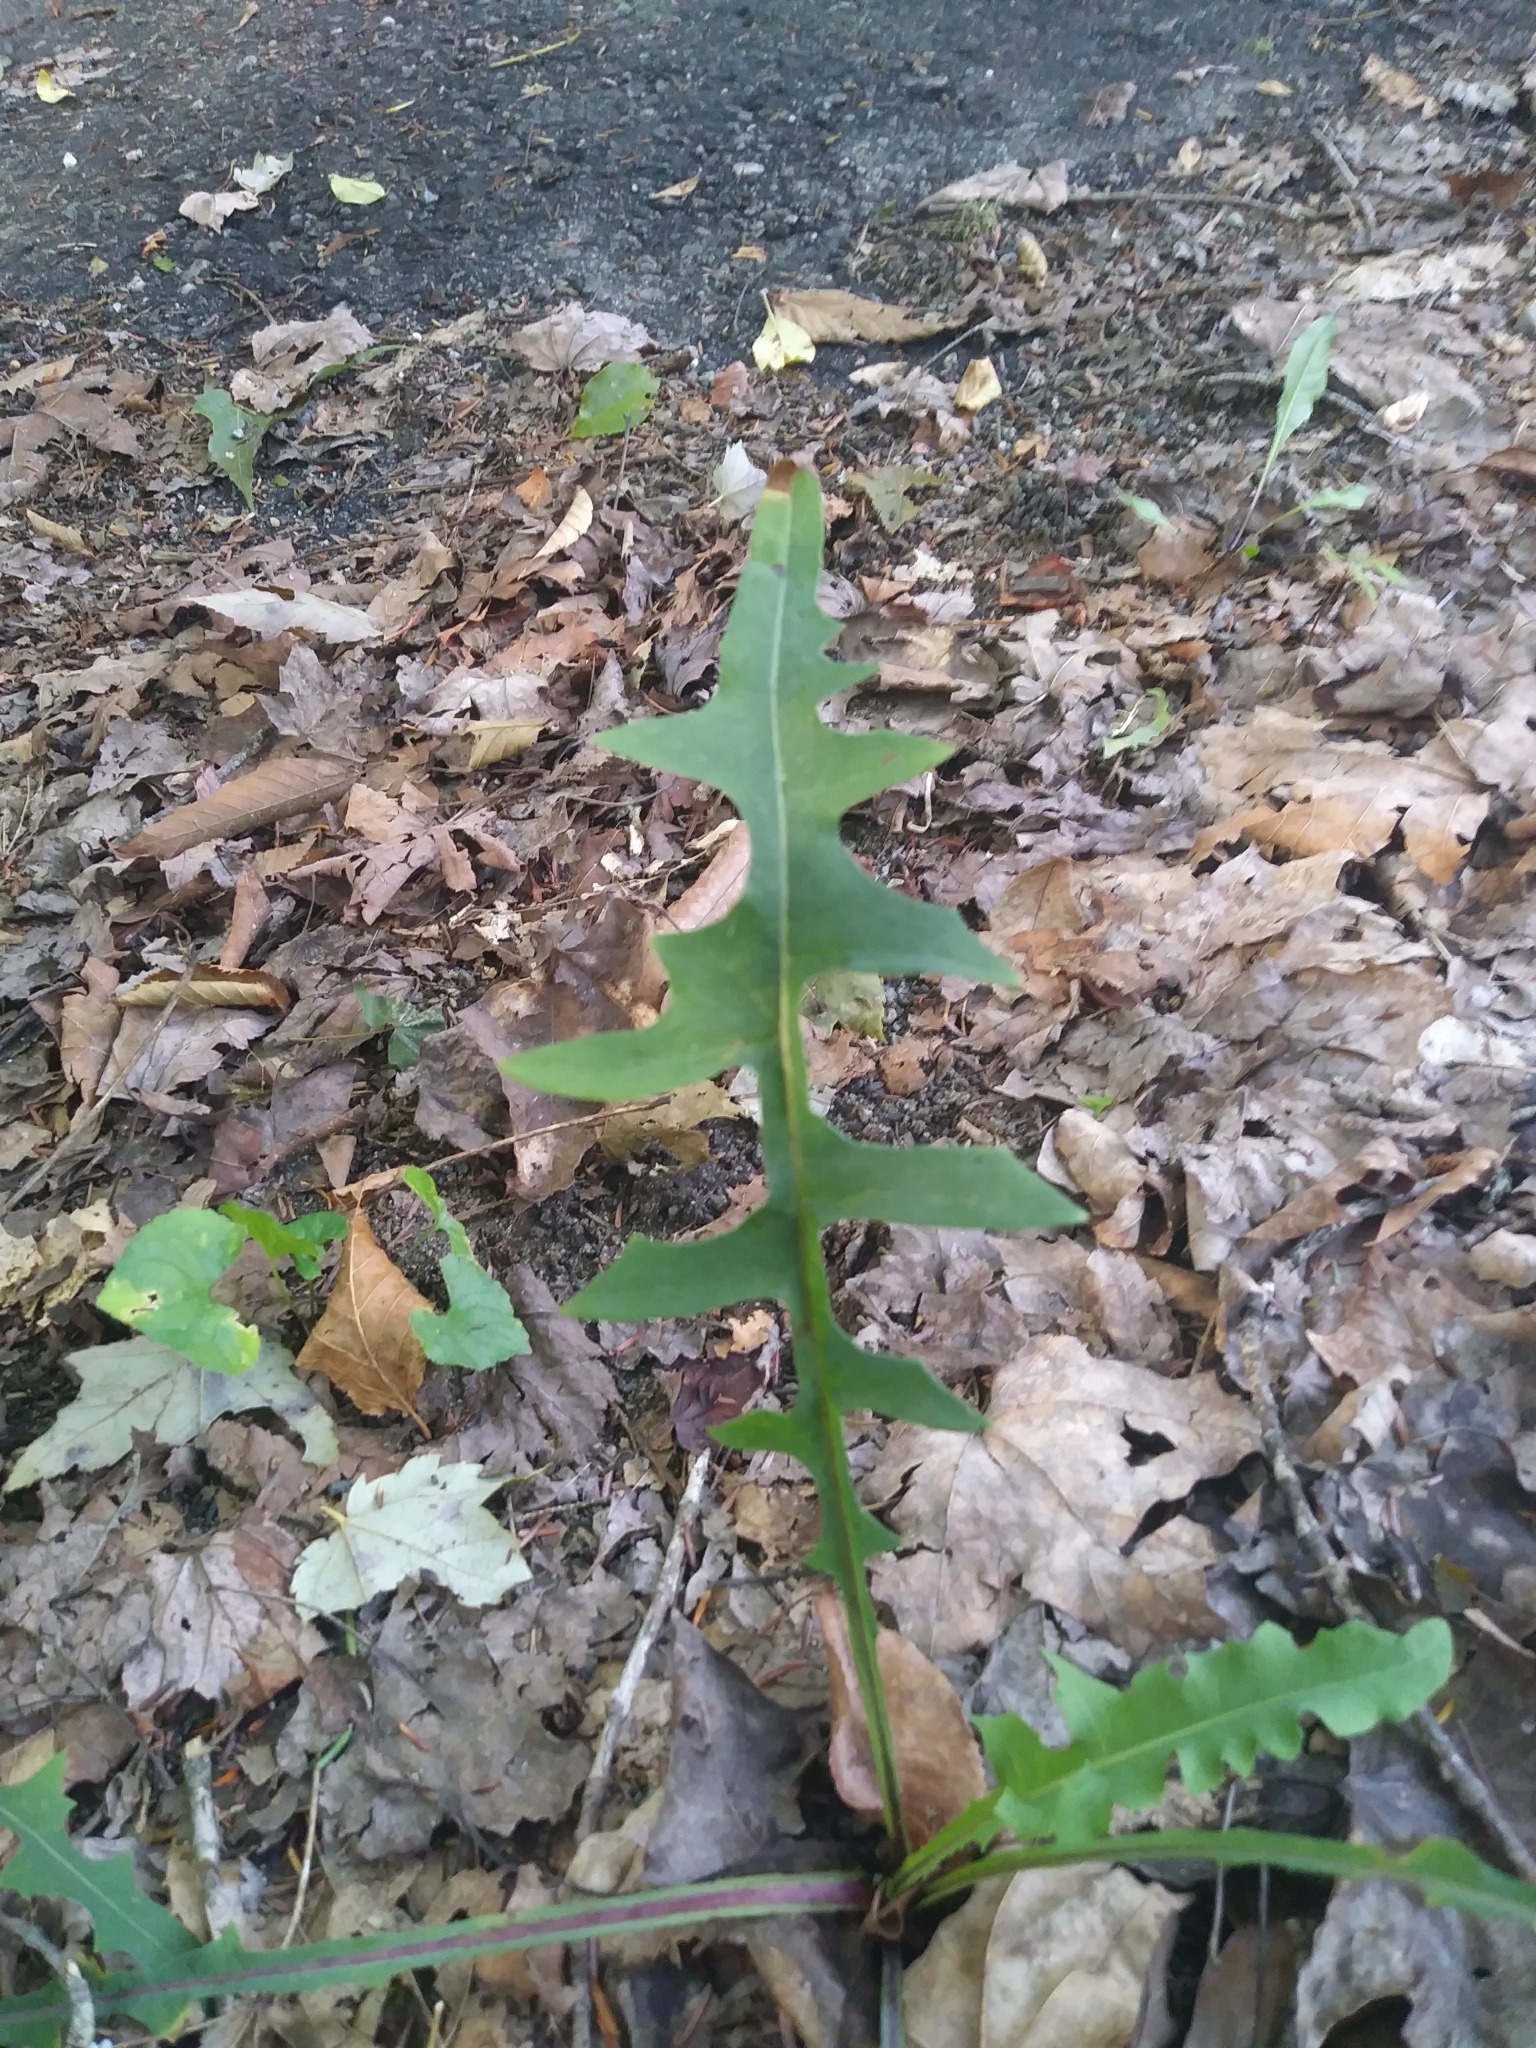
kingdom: Plantae
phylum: Tracheophyta
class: Magnoliopsida
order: Asterales
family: Asteraceae
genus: Lactuca
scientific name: Lactuca canadensis
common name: Canada lettuce
